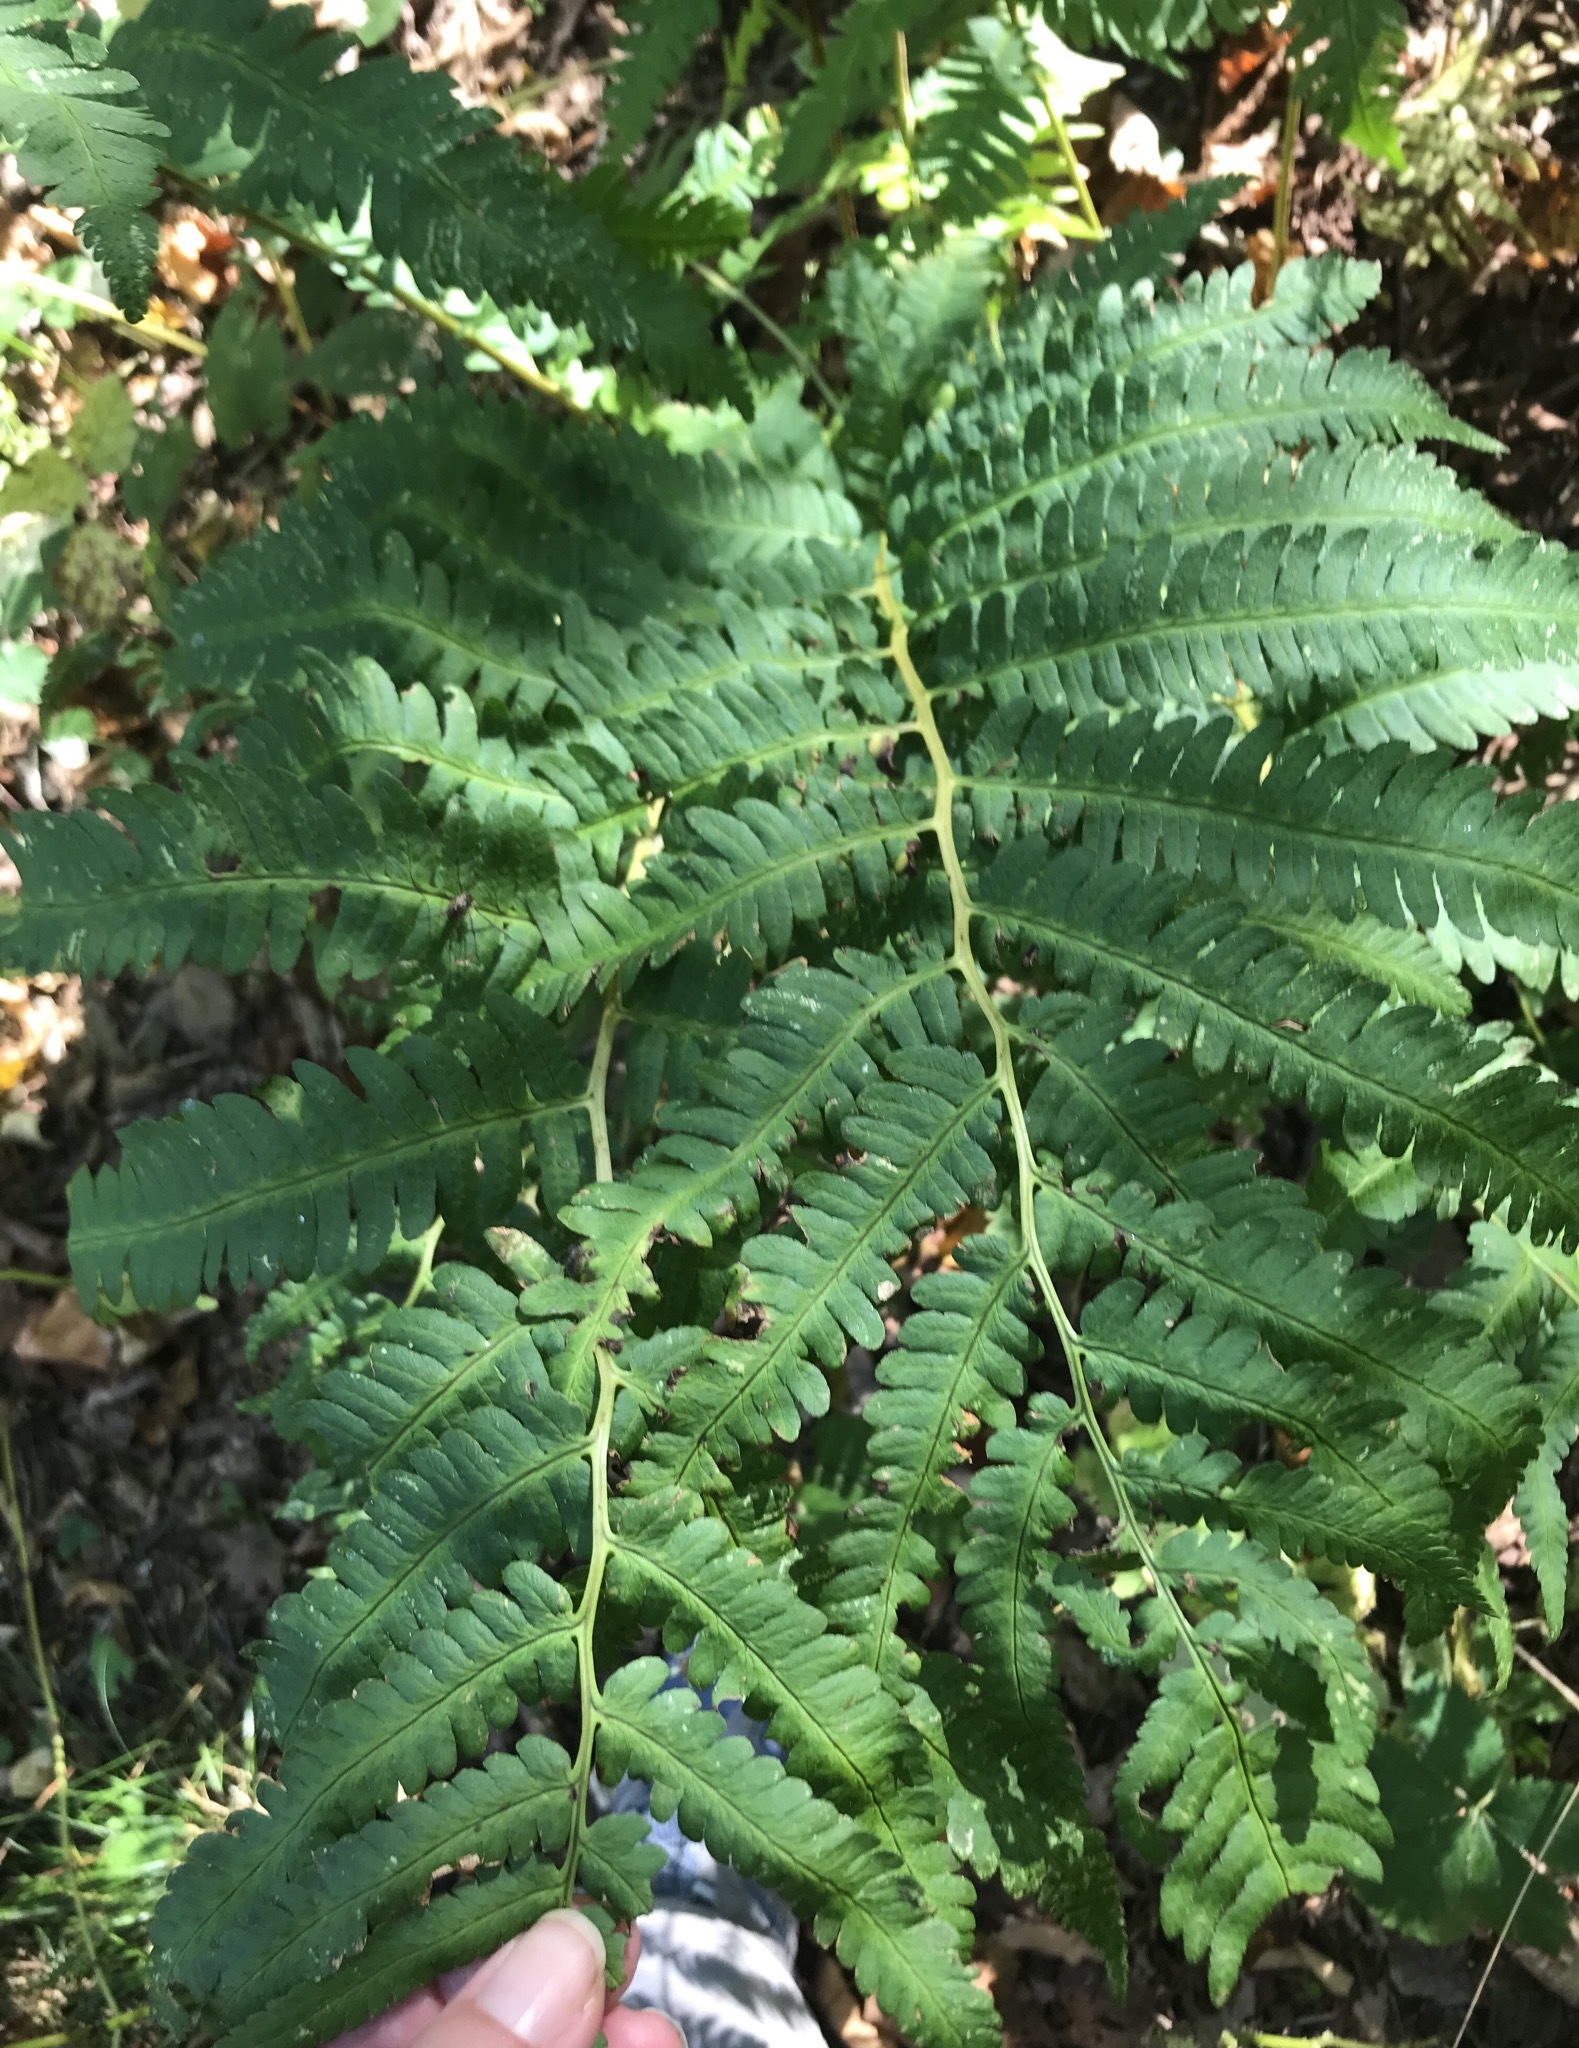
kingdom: Plantae
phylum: Tracheophyta
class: Polypodiopsida
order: Polypodiales
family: Dryopteridaceae
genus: Dryopteris
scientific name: Dryopteris goldieana
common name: Goldie's fern
